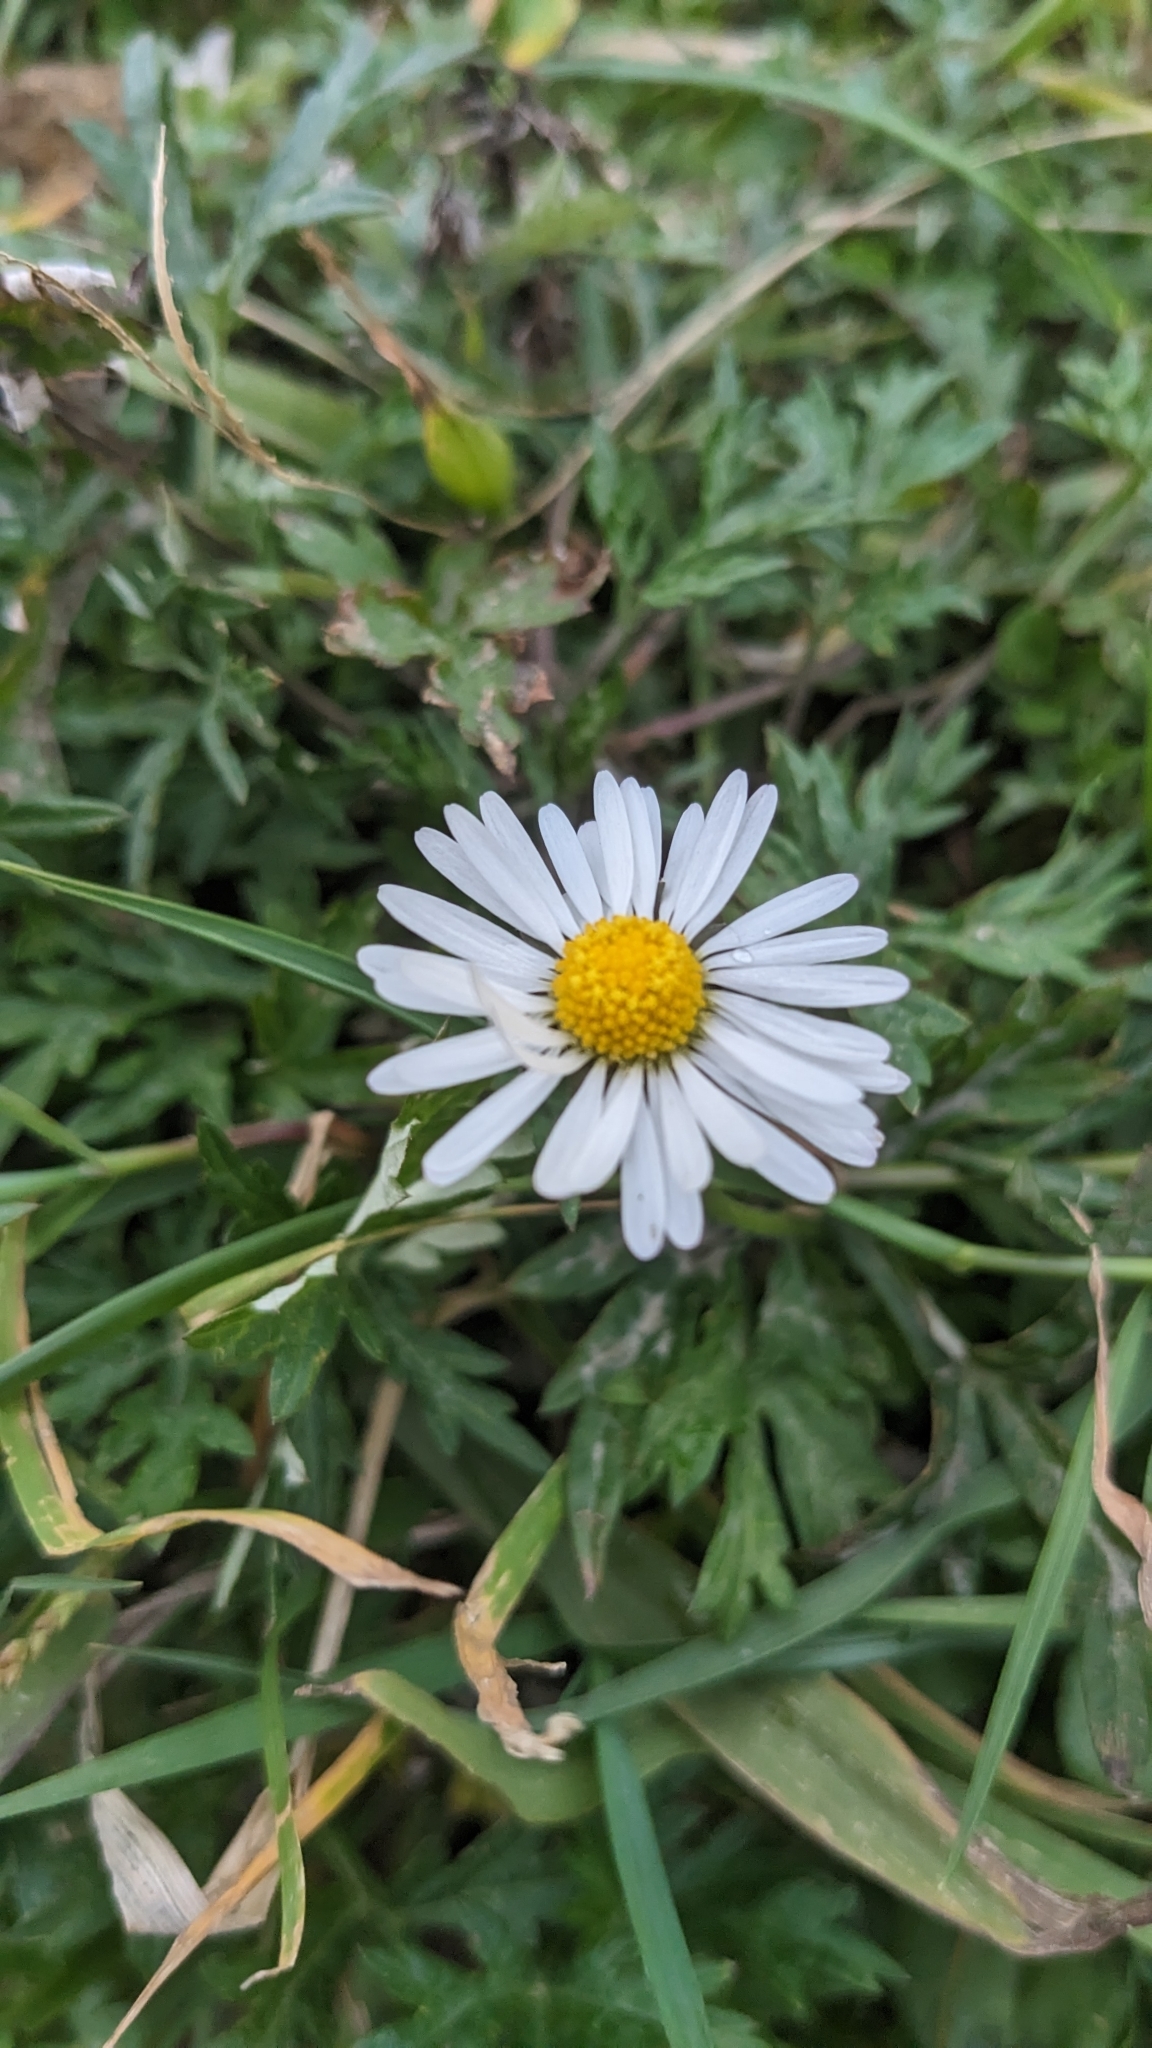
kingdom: Plantae
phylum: Tracheophyta
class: Magnoliopsida
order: Asterales
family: Asteraceae
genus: Bellis
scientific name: Bellis perennis
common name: Lawndaisy
